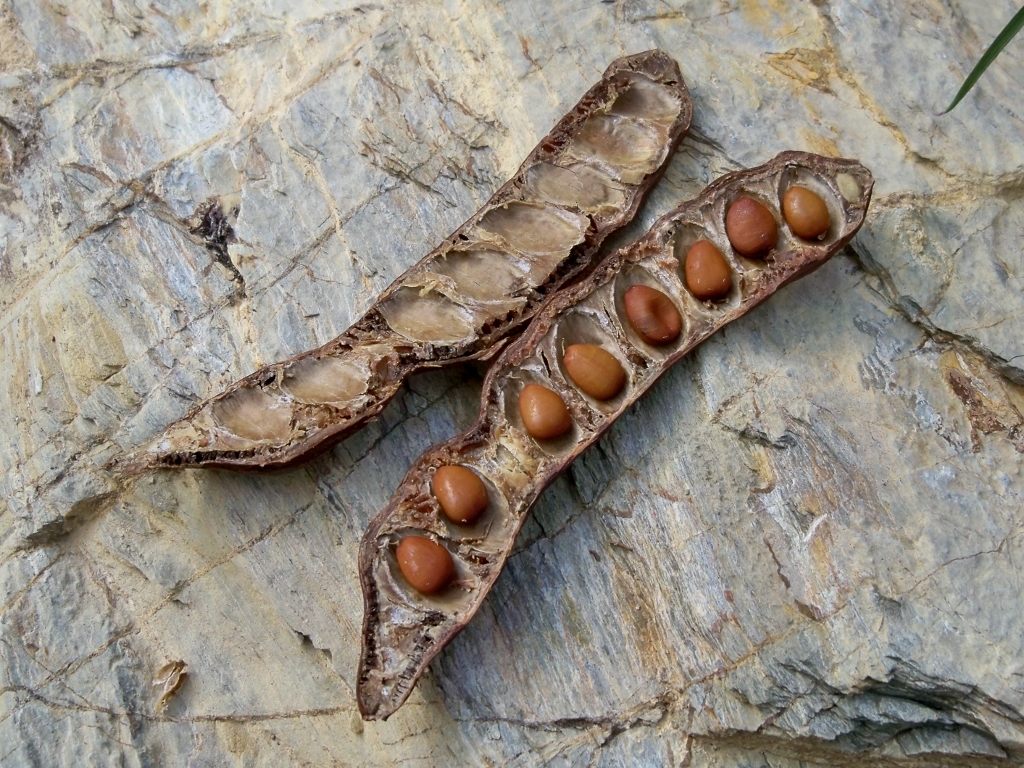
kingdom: Plantae
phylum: Tracheophyta
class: Magnoliopsida
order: Fabales
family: Fabaceae
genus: Ceratonia
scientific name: Ceratonia siliqua
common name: Carob
